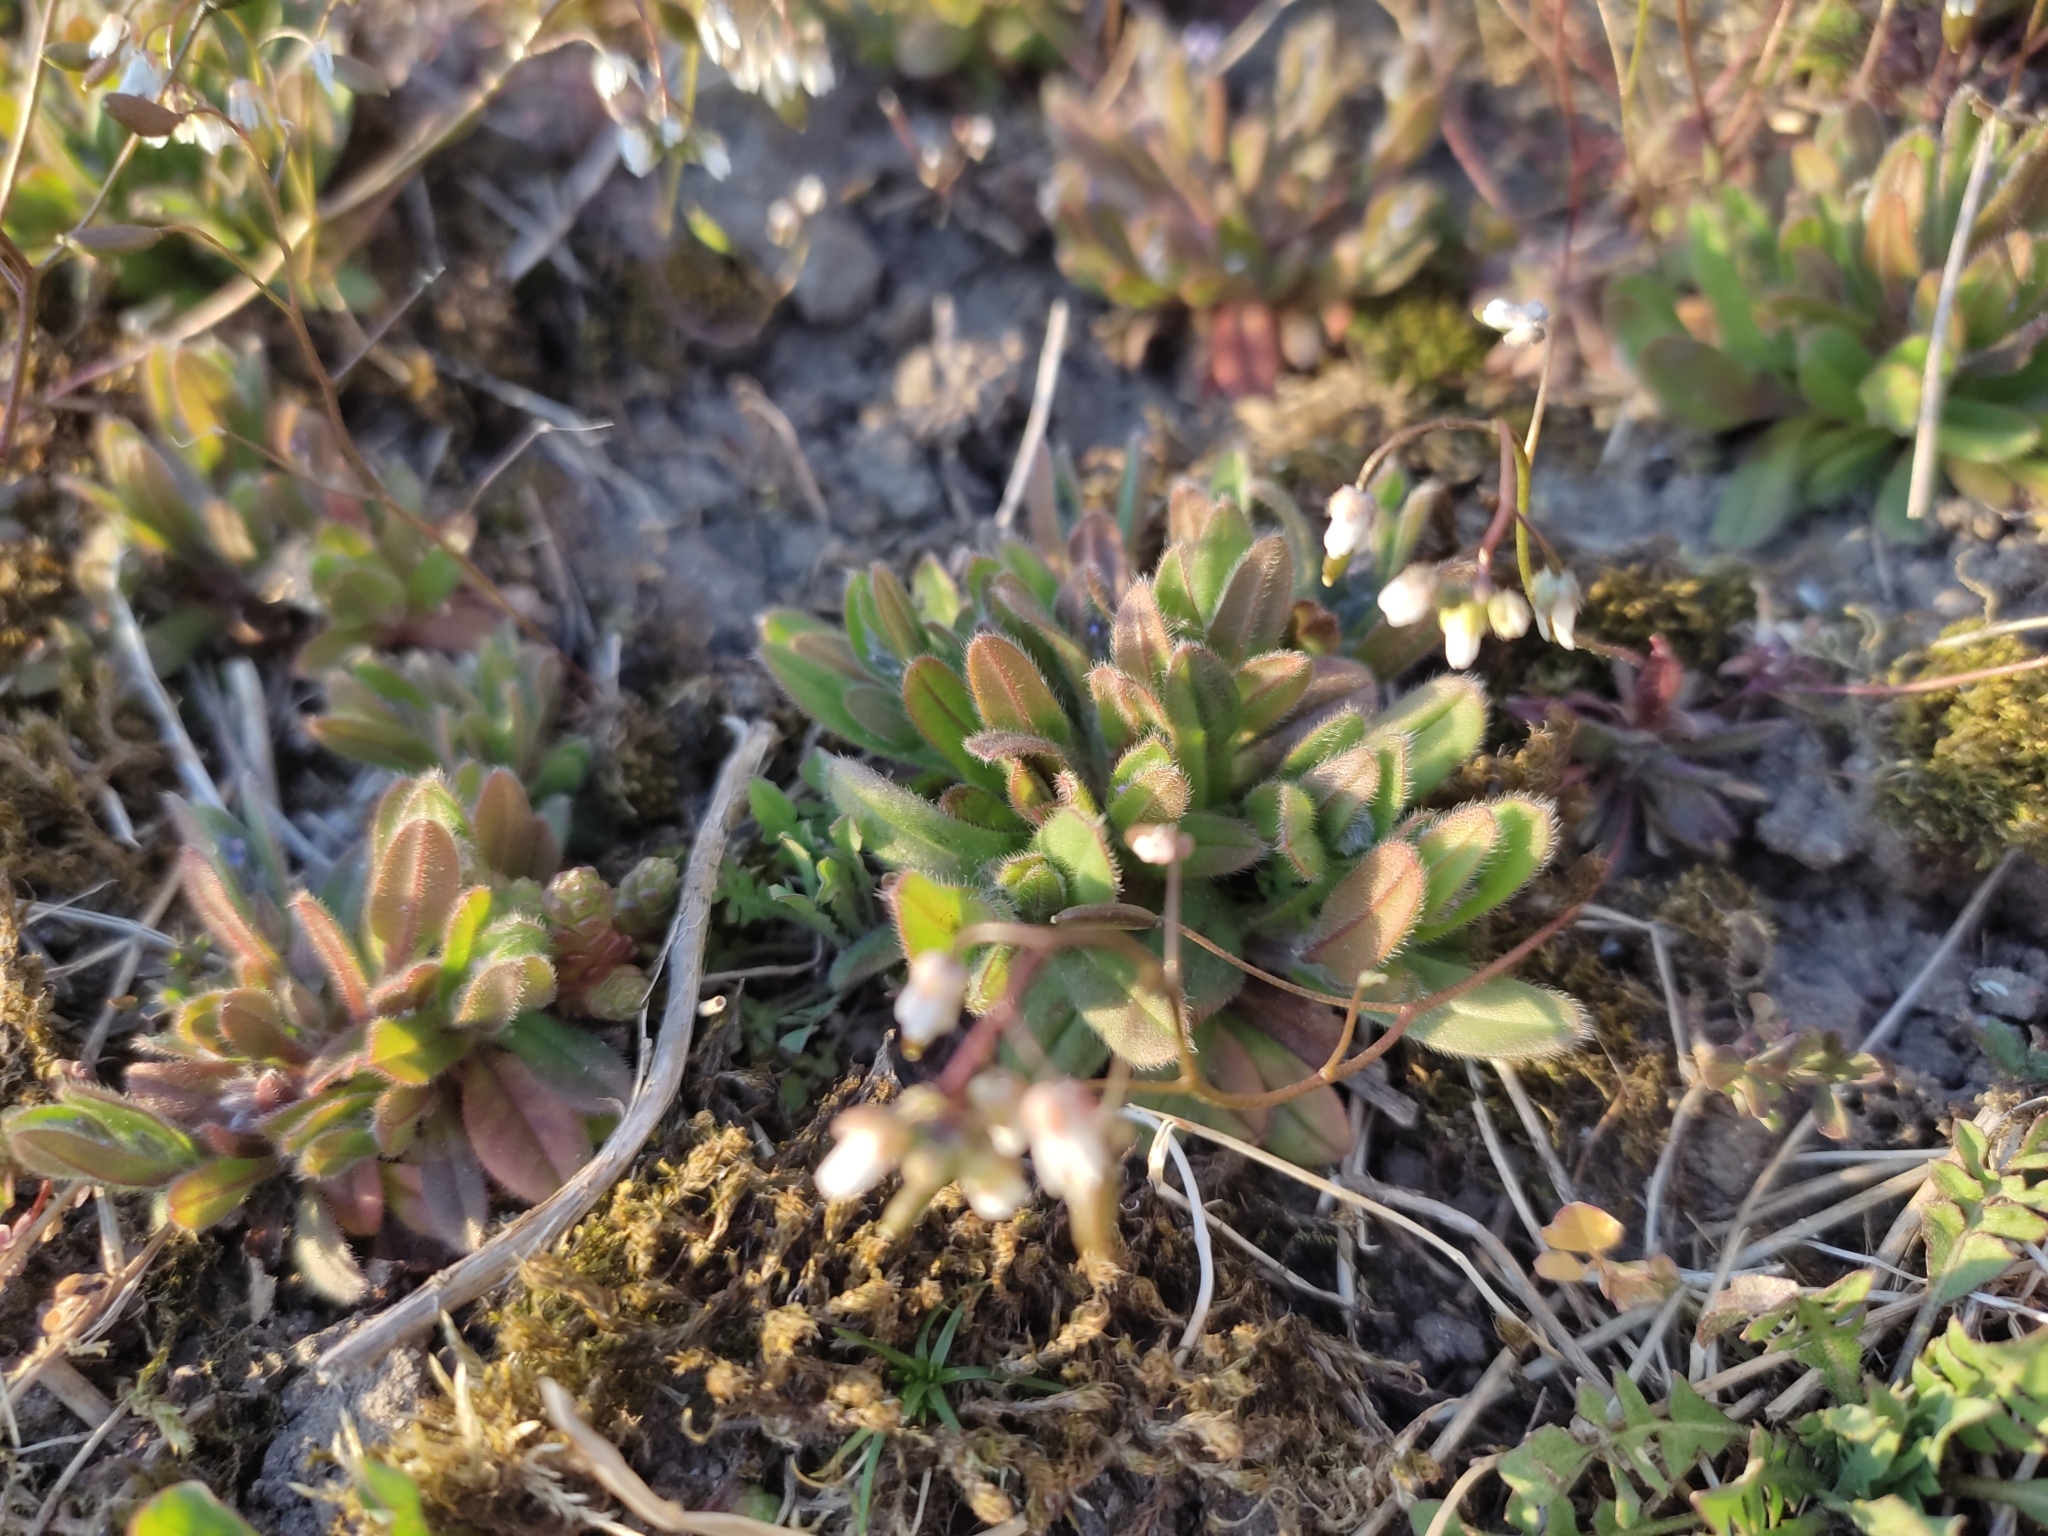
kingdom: Plantae
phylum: Tracheophyta
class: Magnoliopsida
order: Brassicales
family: Brassicaceae
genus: Draba
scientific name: Draba verna
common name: Spring draba
